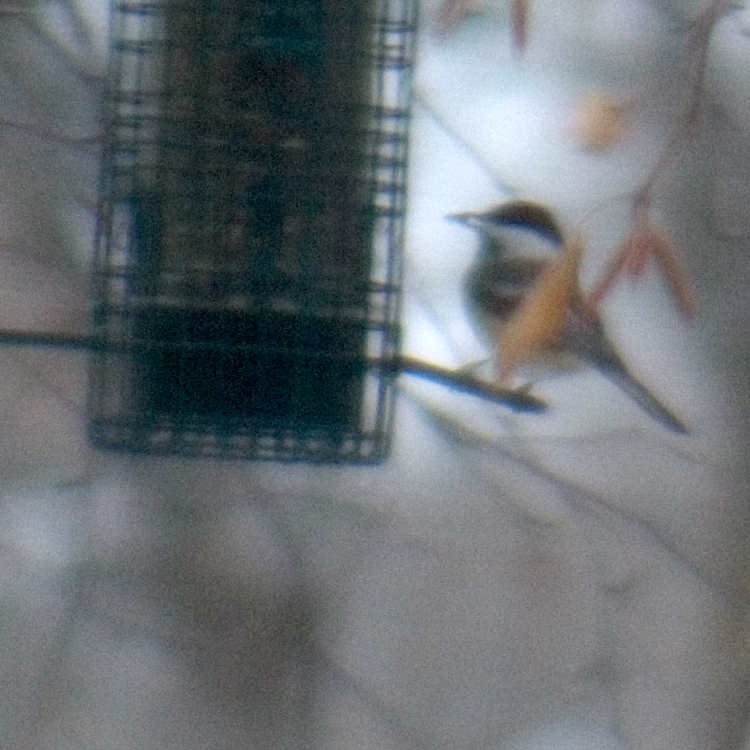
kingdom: Animalia
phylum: Chordata
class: Aves
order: Passeriformes
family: Paridae
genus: Poecile
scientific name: Poecile atricapillus
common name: Black-capped chickadee
